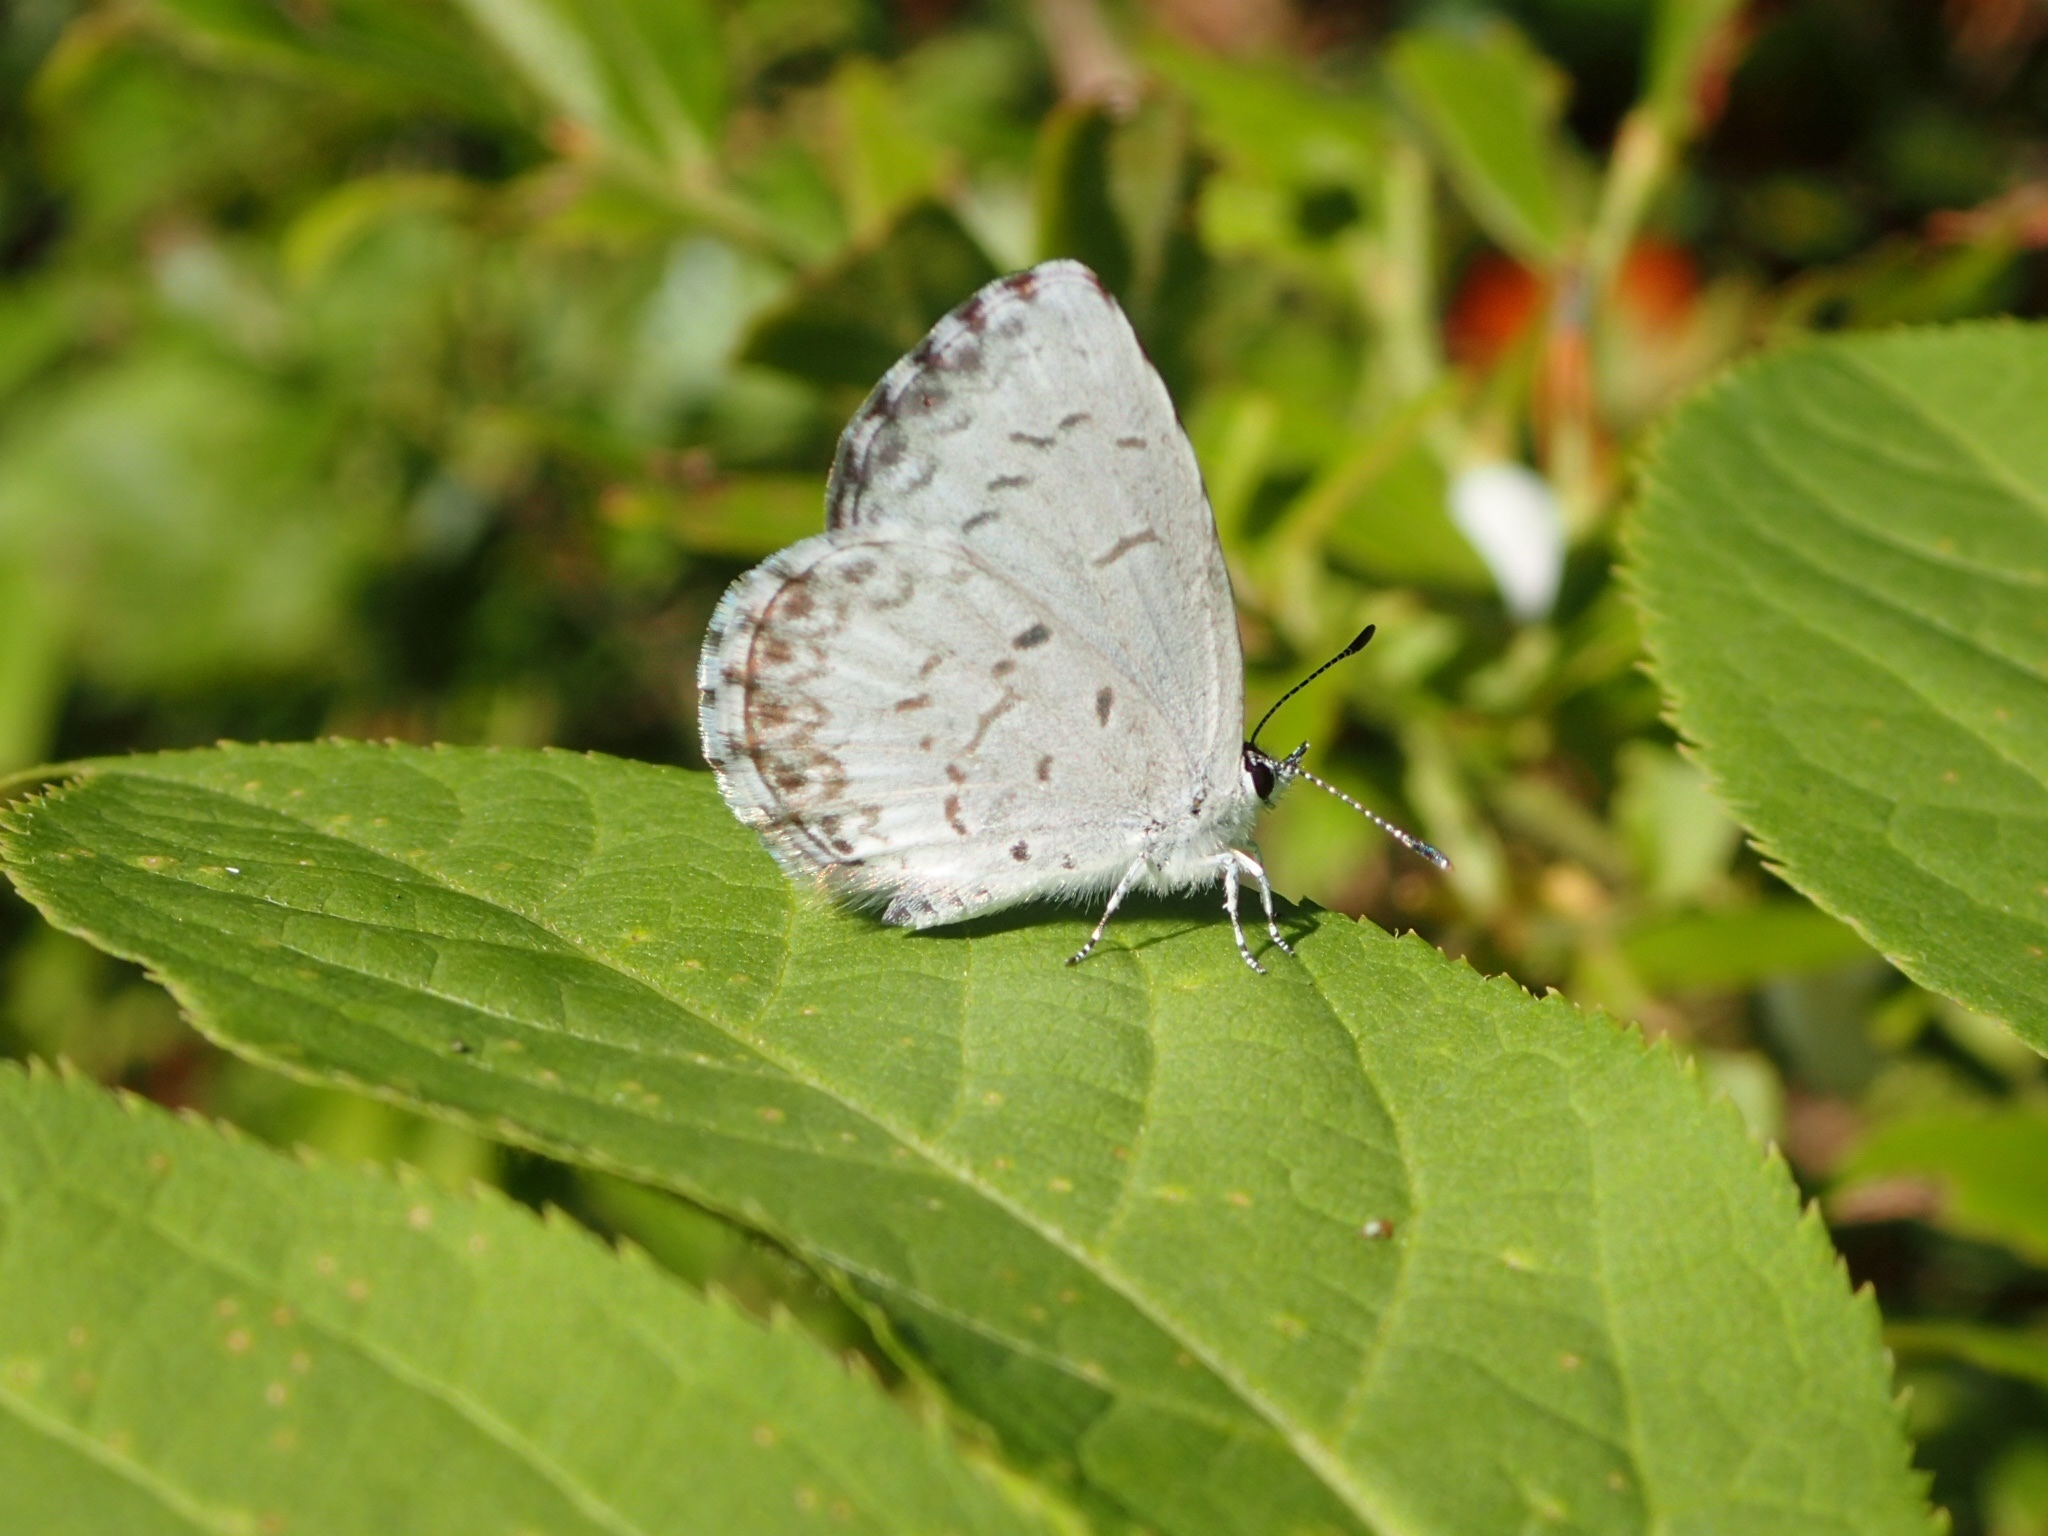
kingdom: Animalia
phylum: Arthropoda
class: Insecta
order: Lepidoptera
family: Lycaenidae
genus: Celastrina
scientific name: Celastrina lucia
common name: Lucia azure
